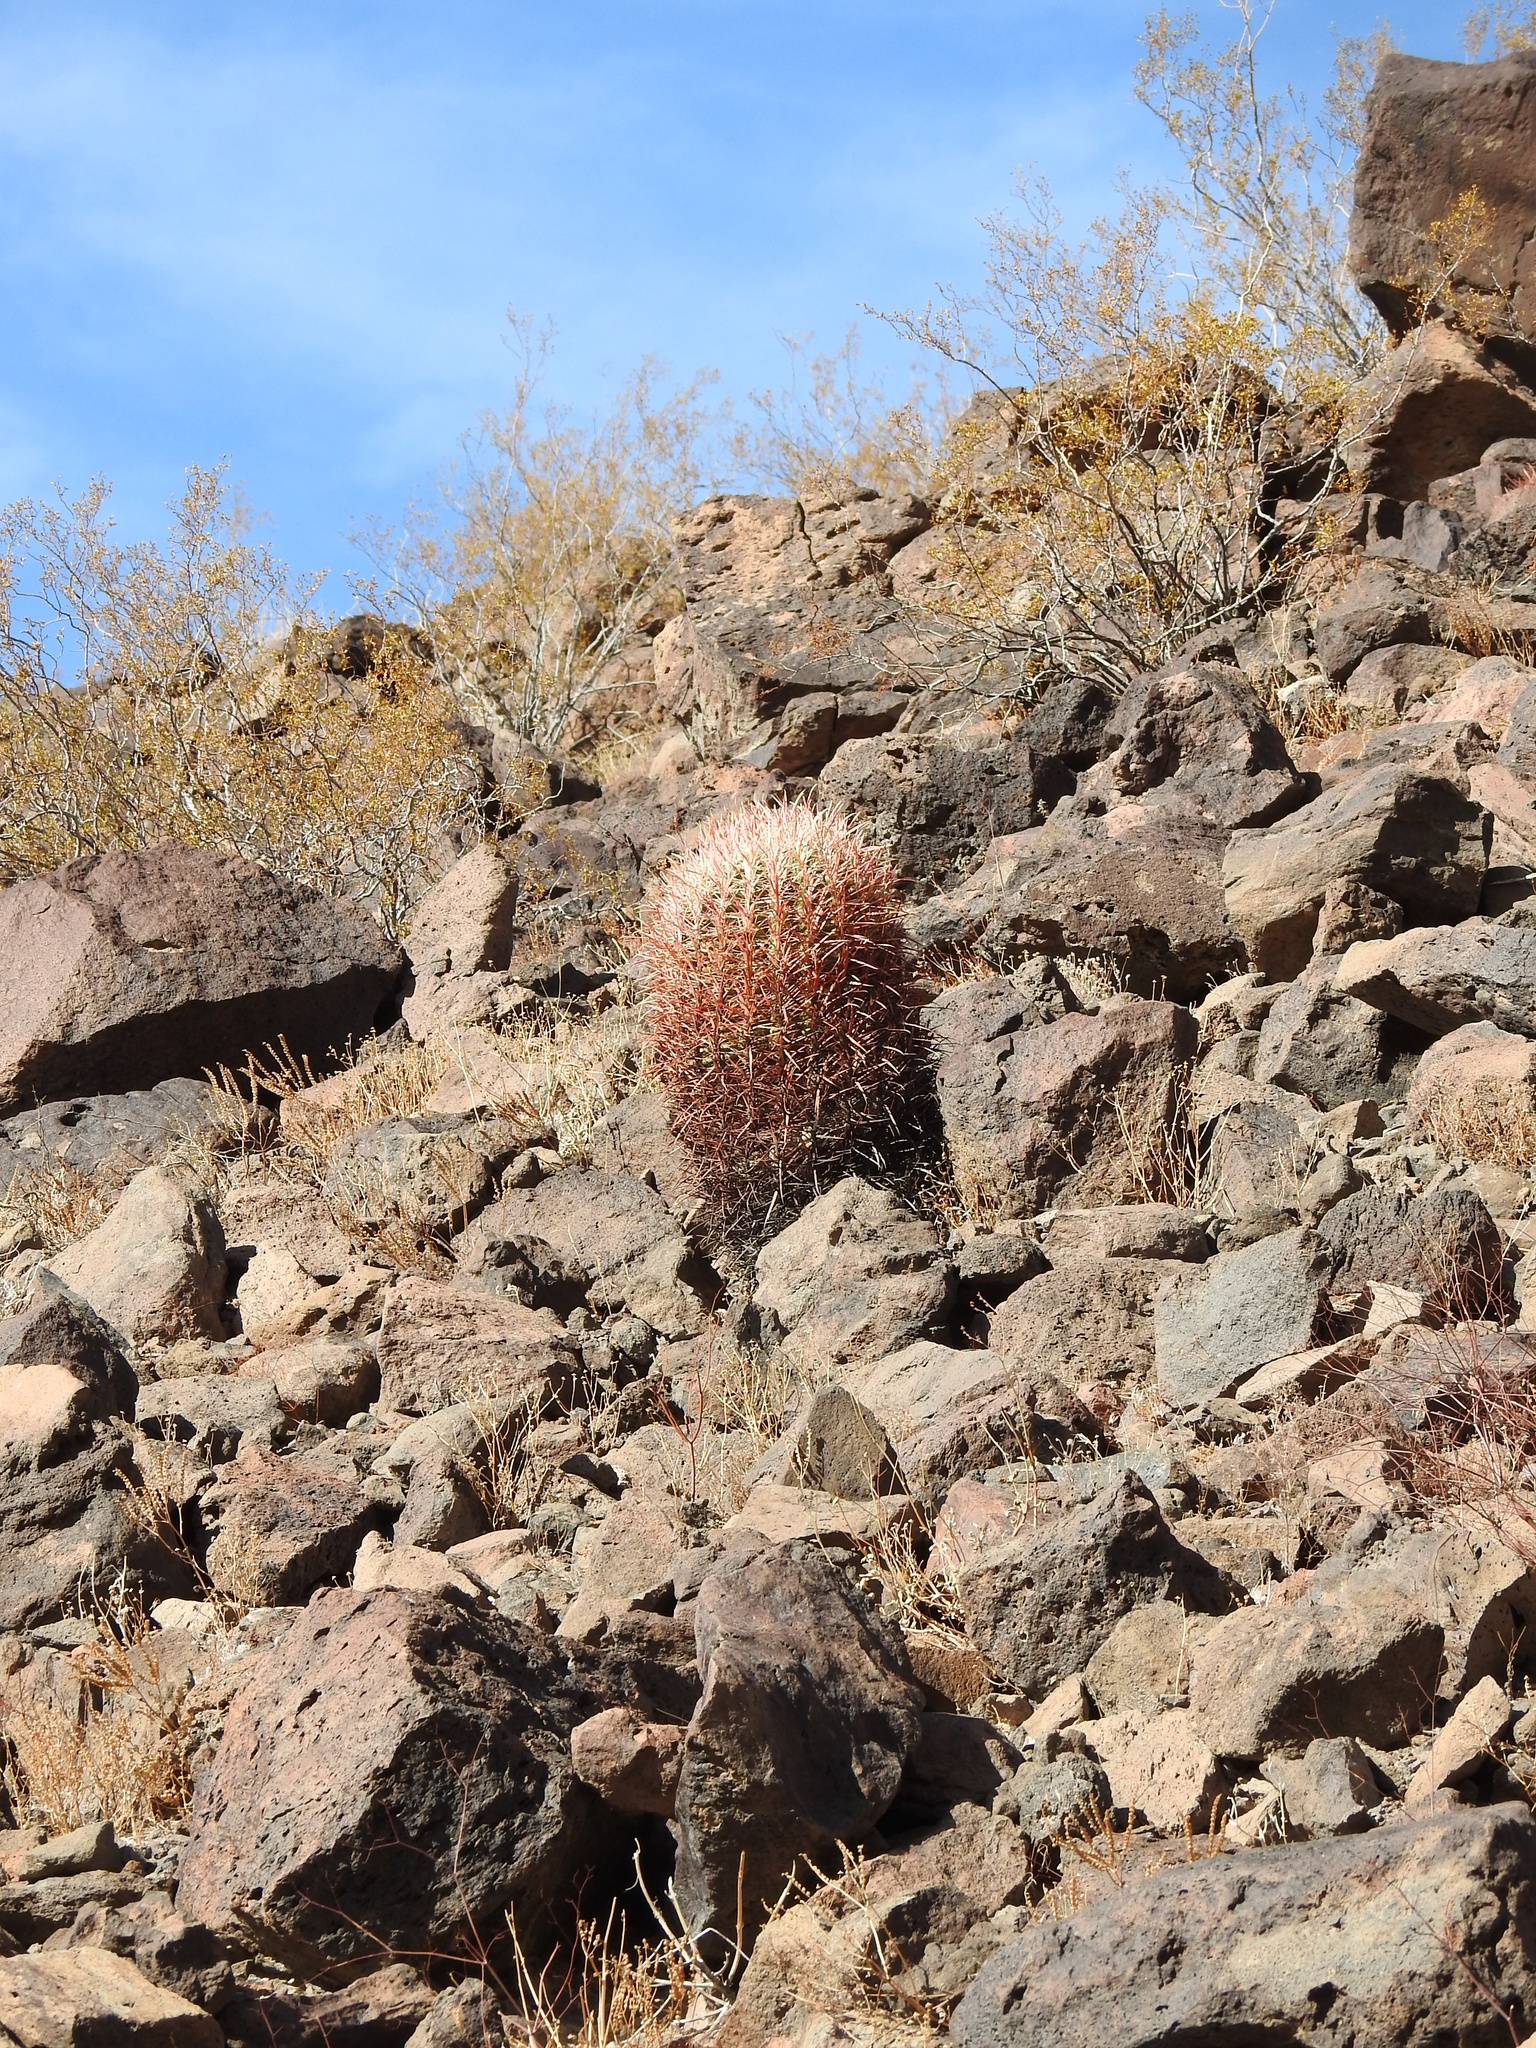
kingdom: Plantae
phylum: Tracheophyta
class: Magnoliopsida
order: Caryophyllales
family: Cactaceae
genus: Ferocactus
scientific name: Ferocactus cylindraceus
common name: California barrel cactus
